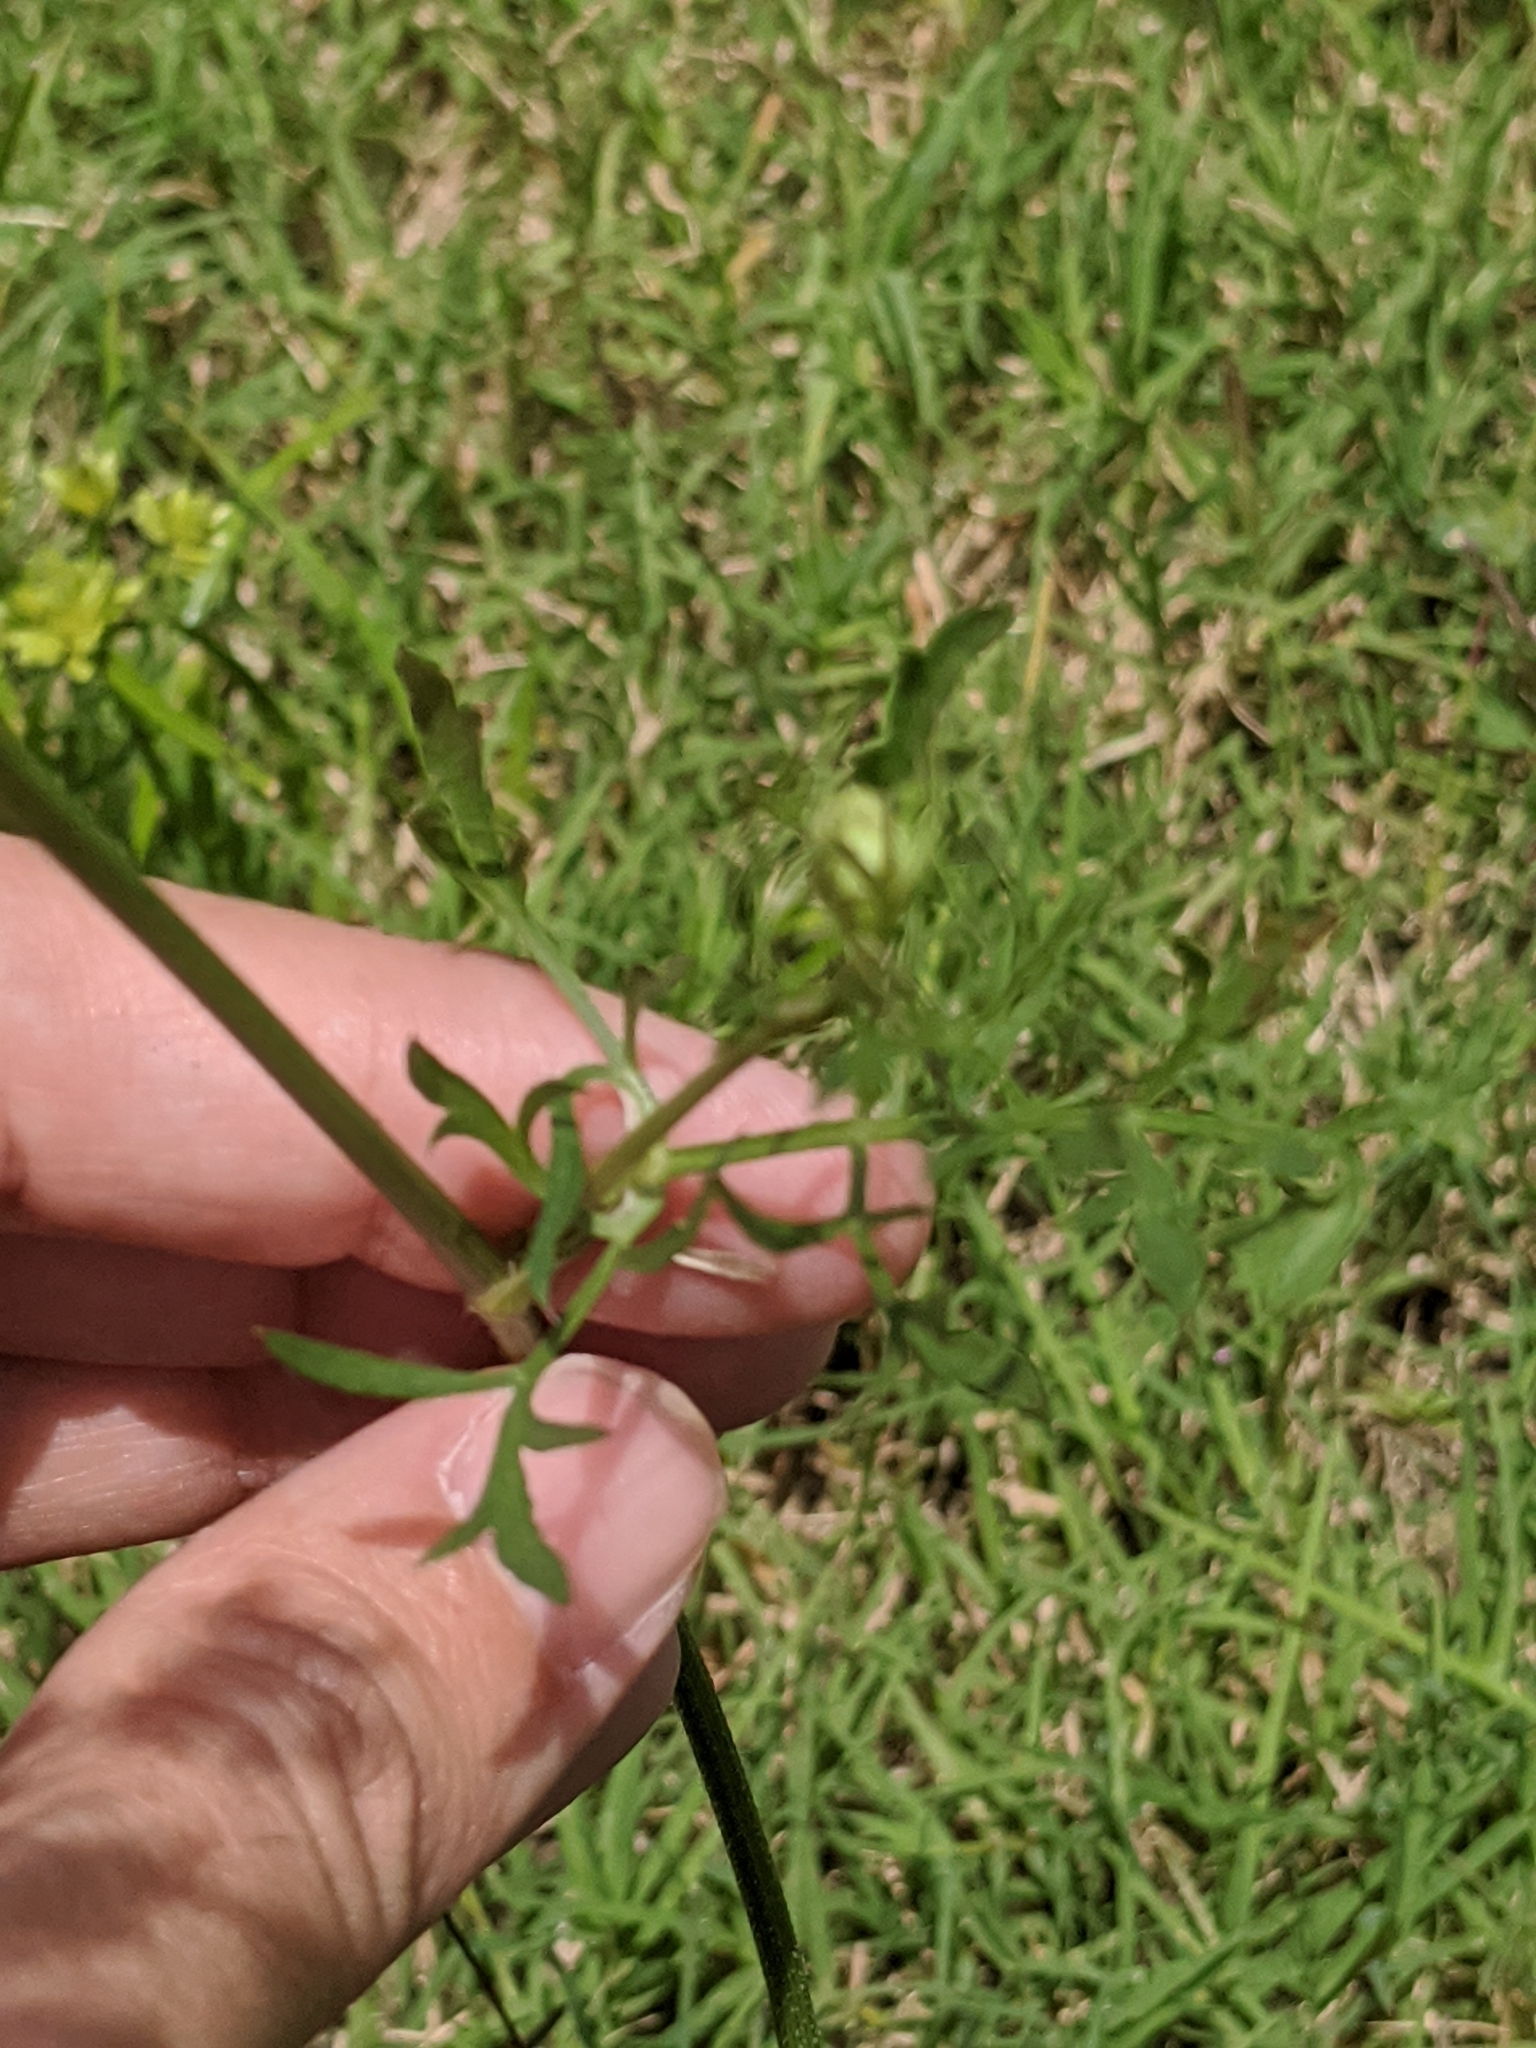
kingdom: Plantae
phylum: Tracheophyta
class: Magnoliopsida
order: Apiales
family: Apiaceae
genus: Daucus
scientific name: Daucus carota
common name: Wild carrot
